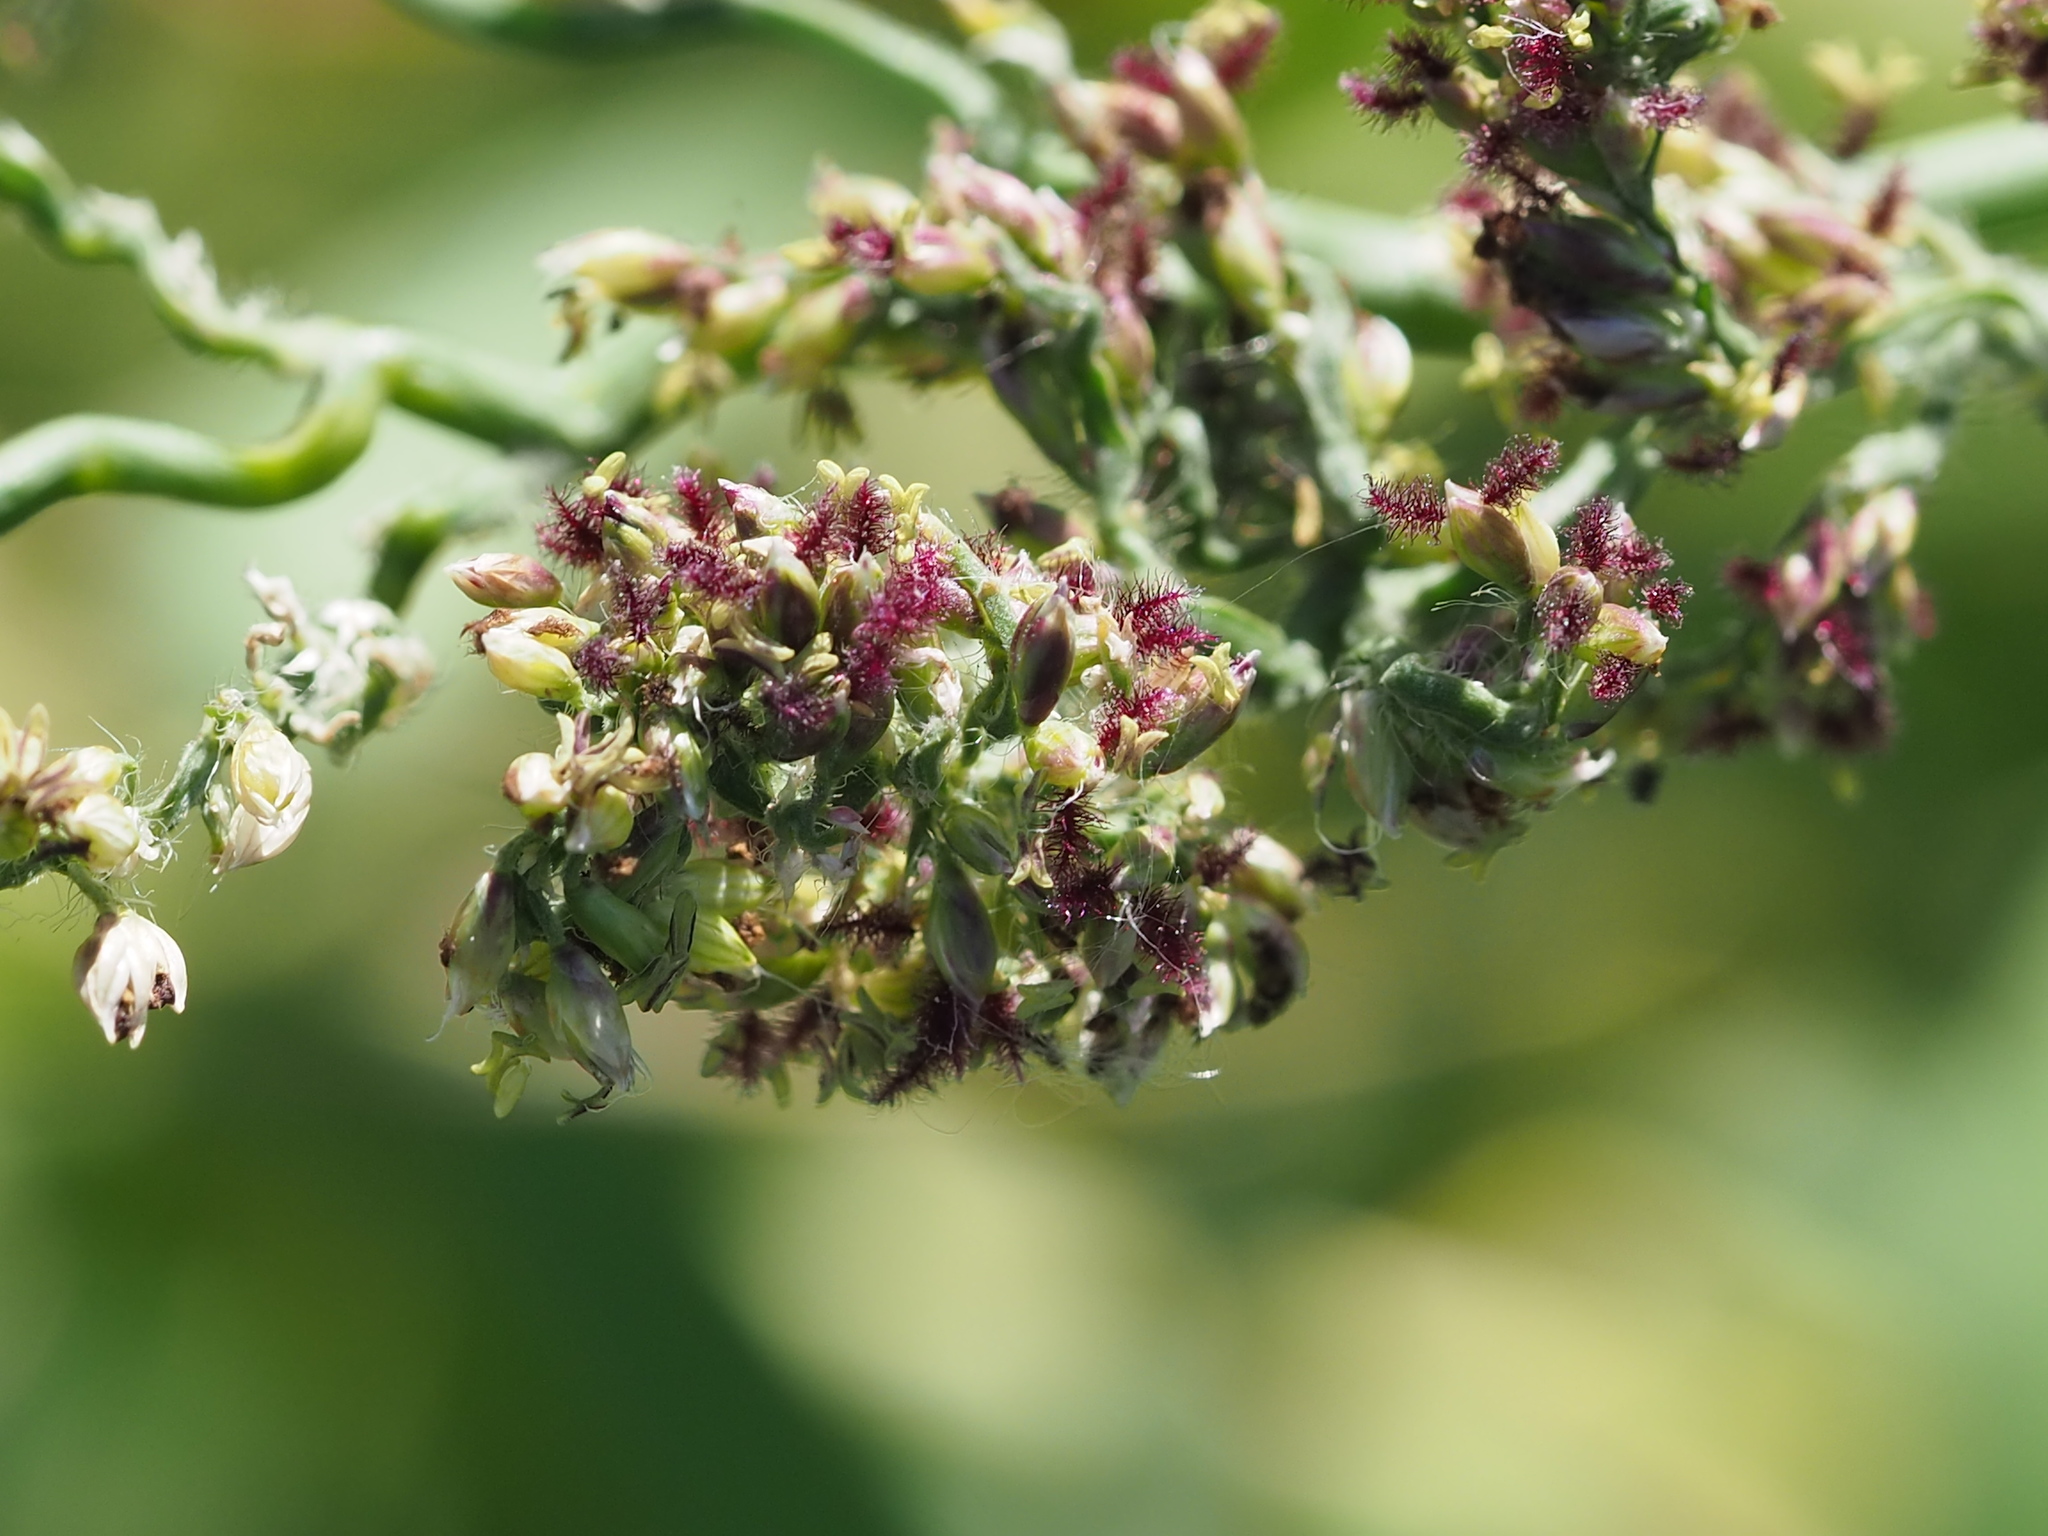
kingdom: Plantae
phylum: Tracheophyta
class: Liliopsida
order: Poales
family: Poaceae
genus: Urochloa
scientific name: Urochloa mutica
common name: Para grass
